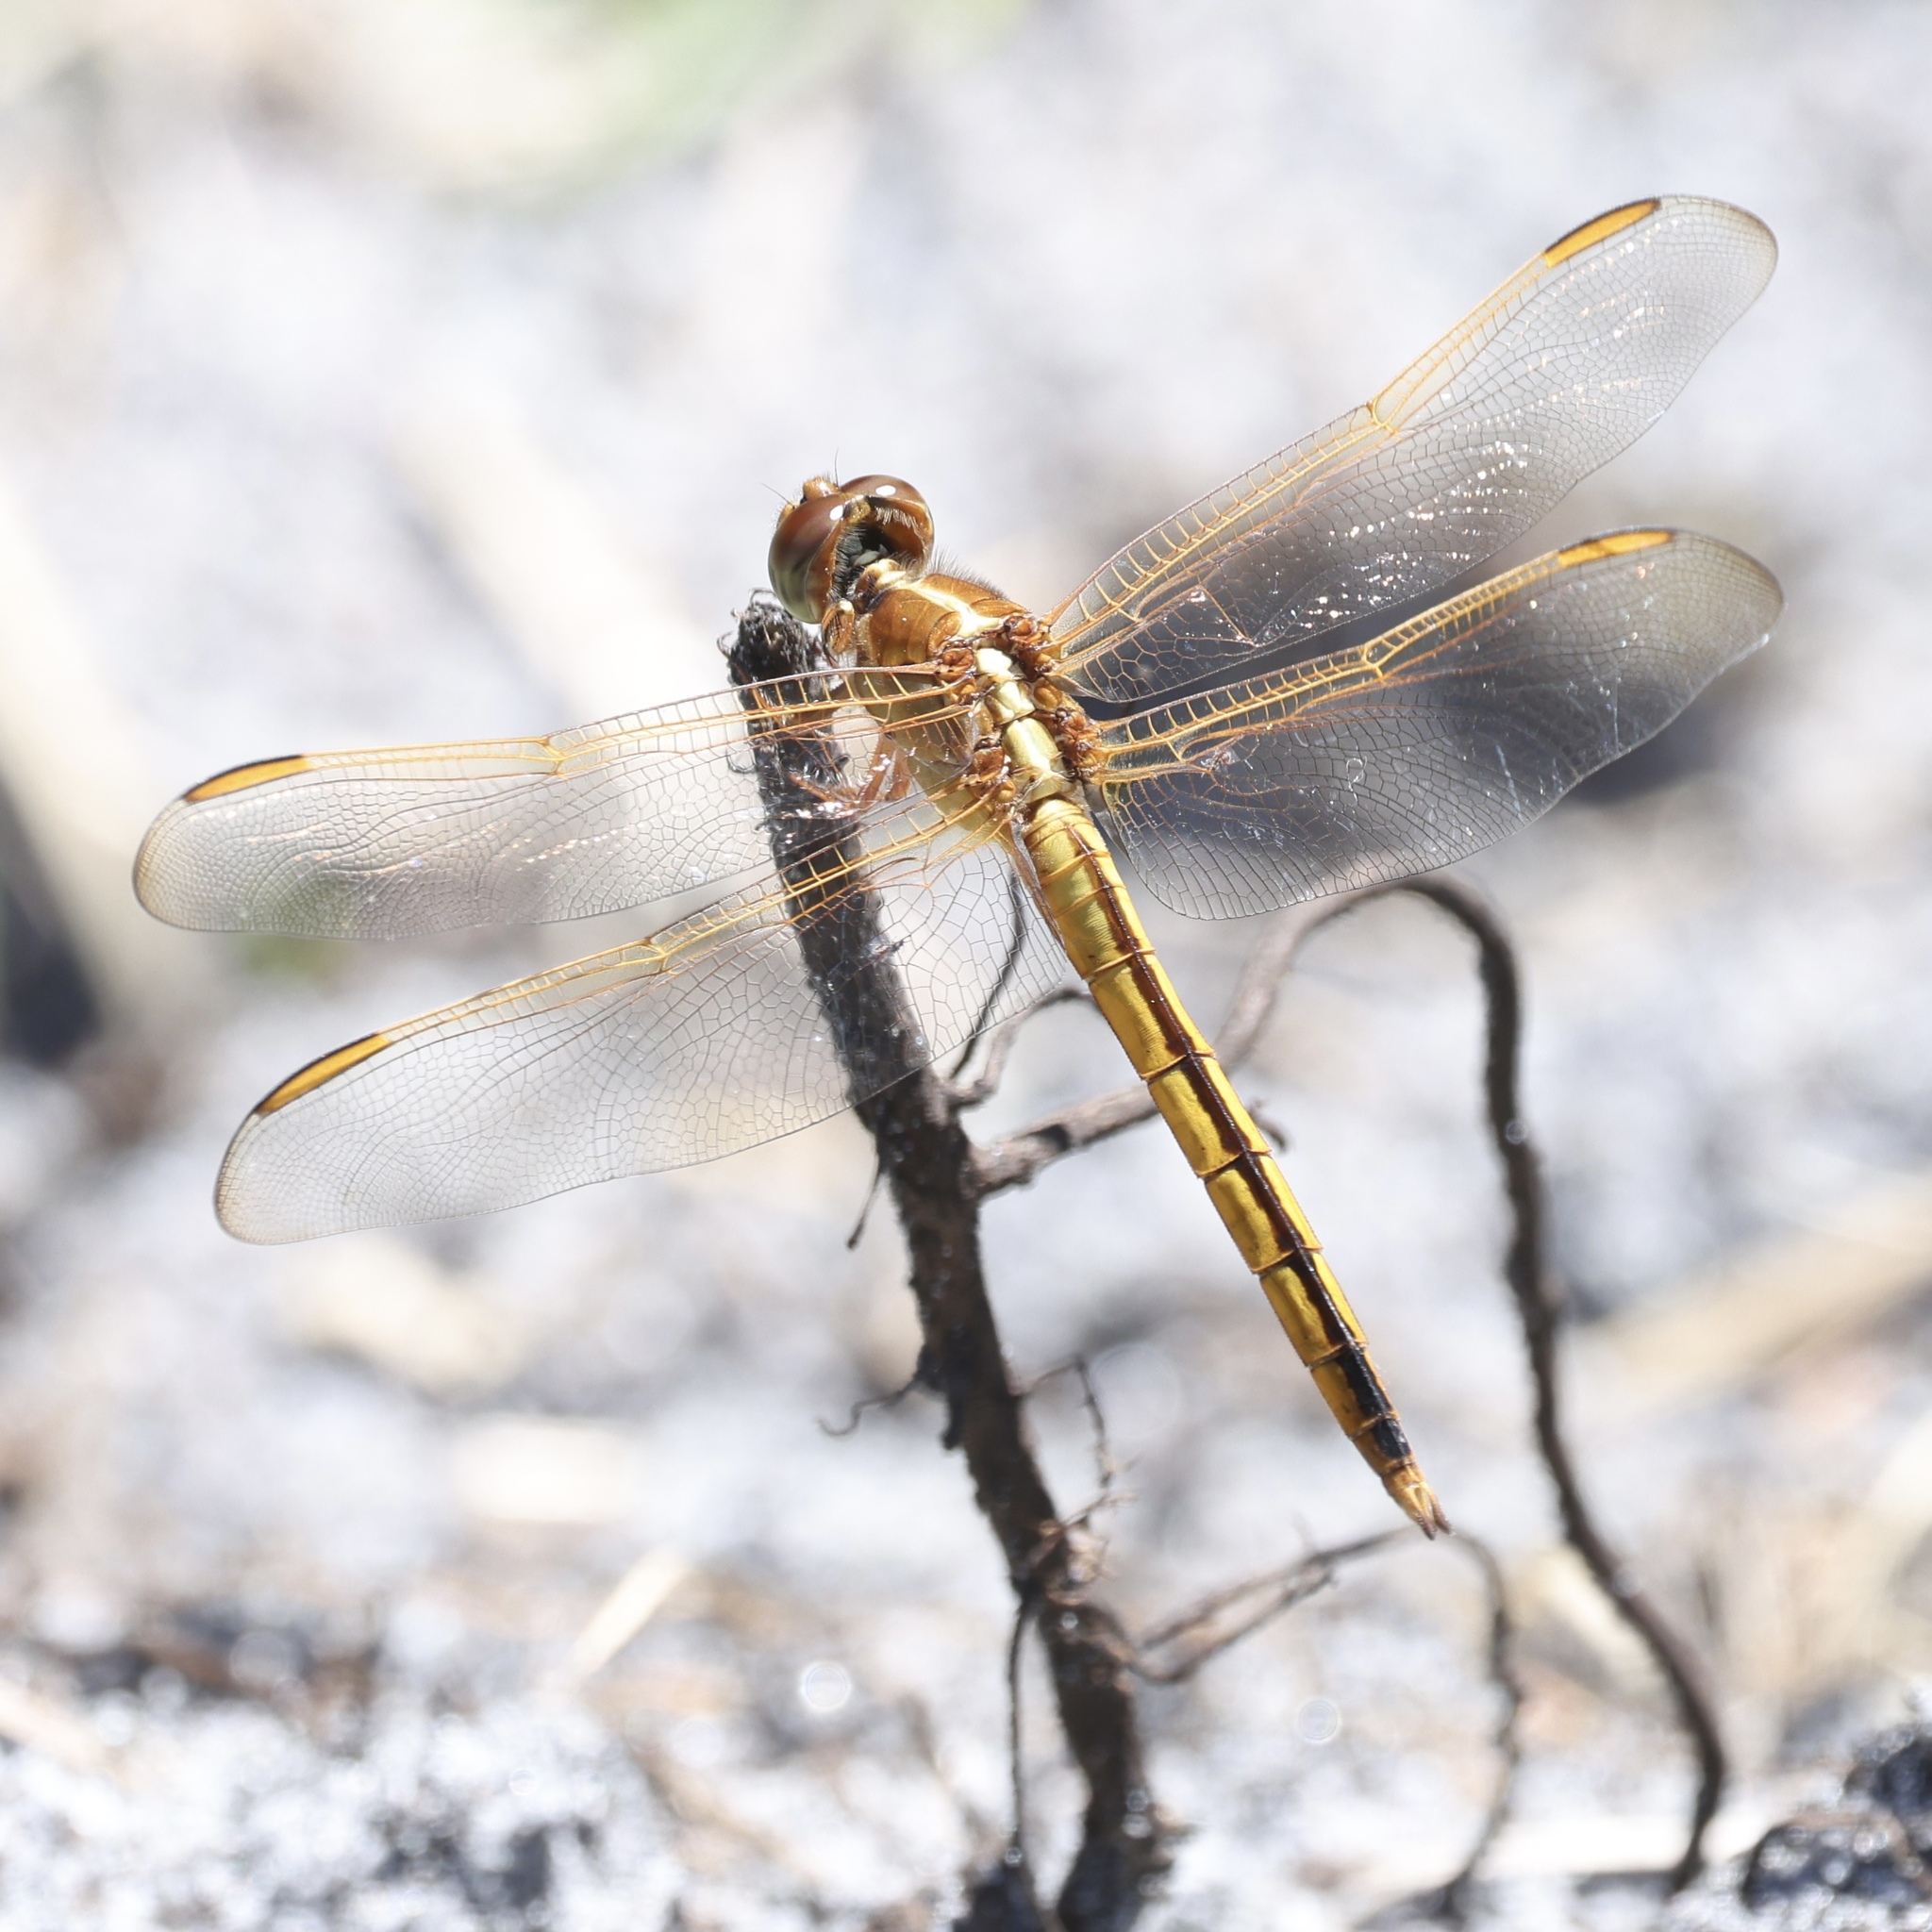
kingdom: Animalia
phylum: Arthropoda
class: Insecta
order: Odonata
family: Libellulidae
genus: Libellula
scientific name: Libellula needhami
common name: Needham's skimmer
